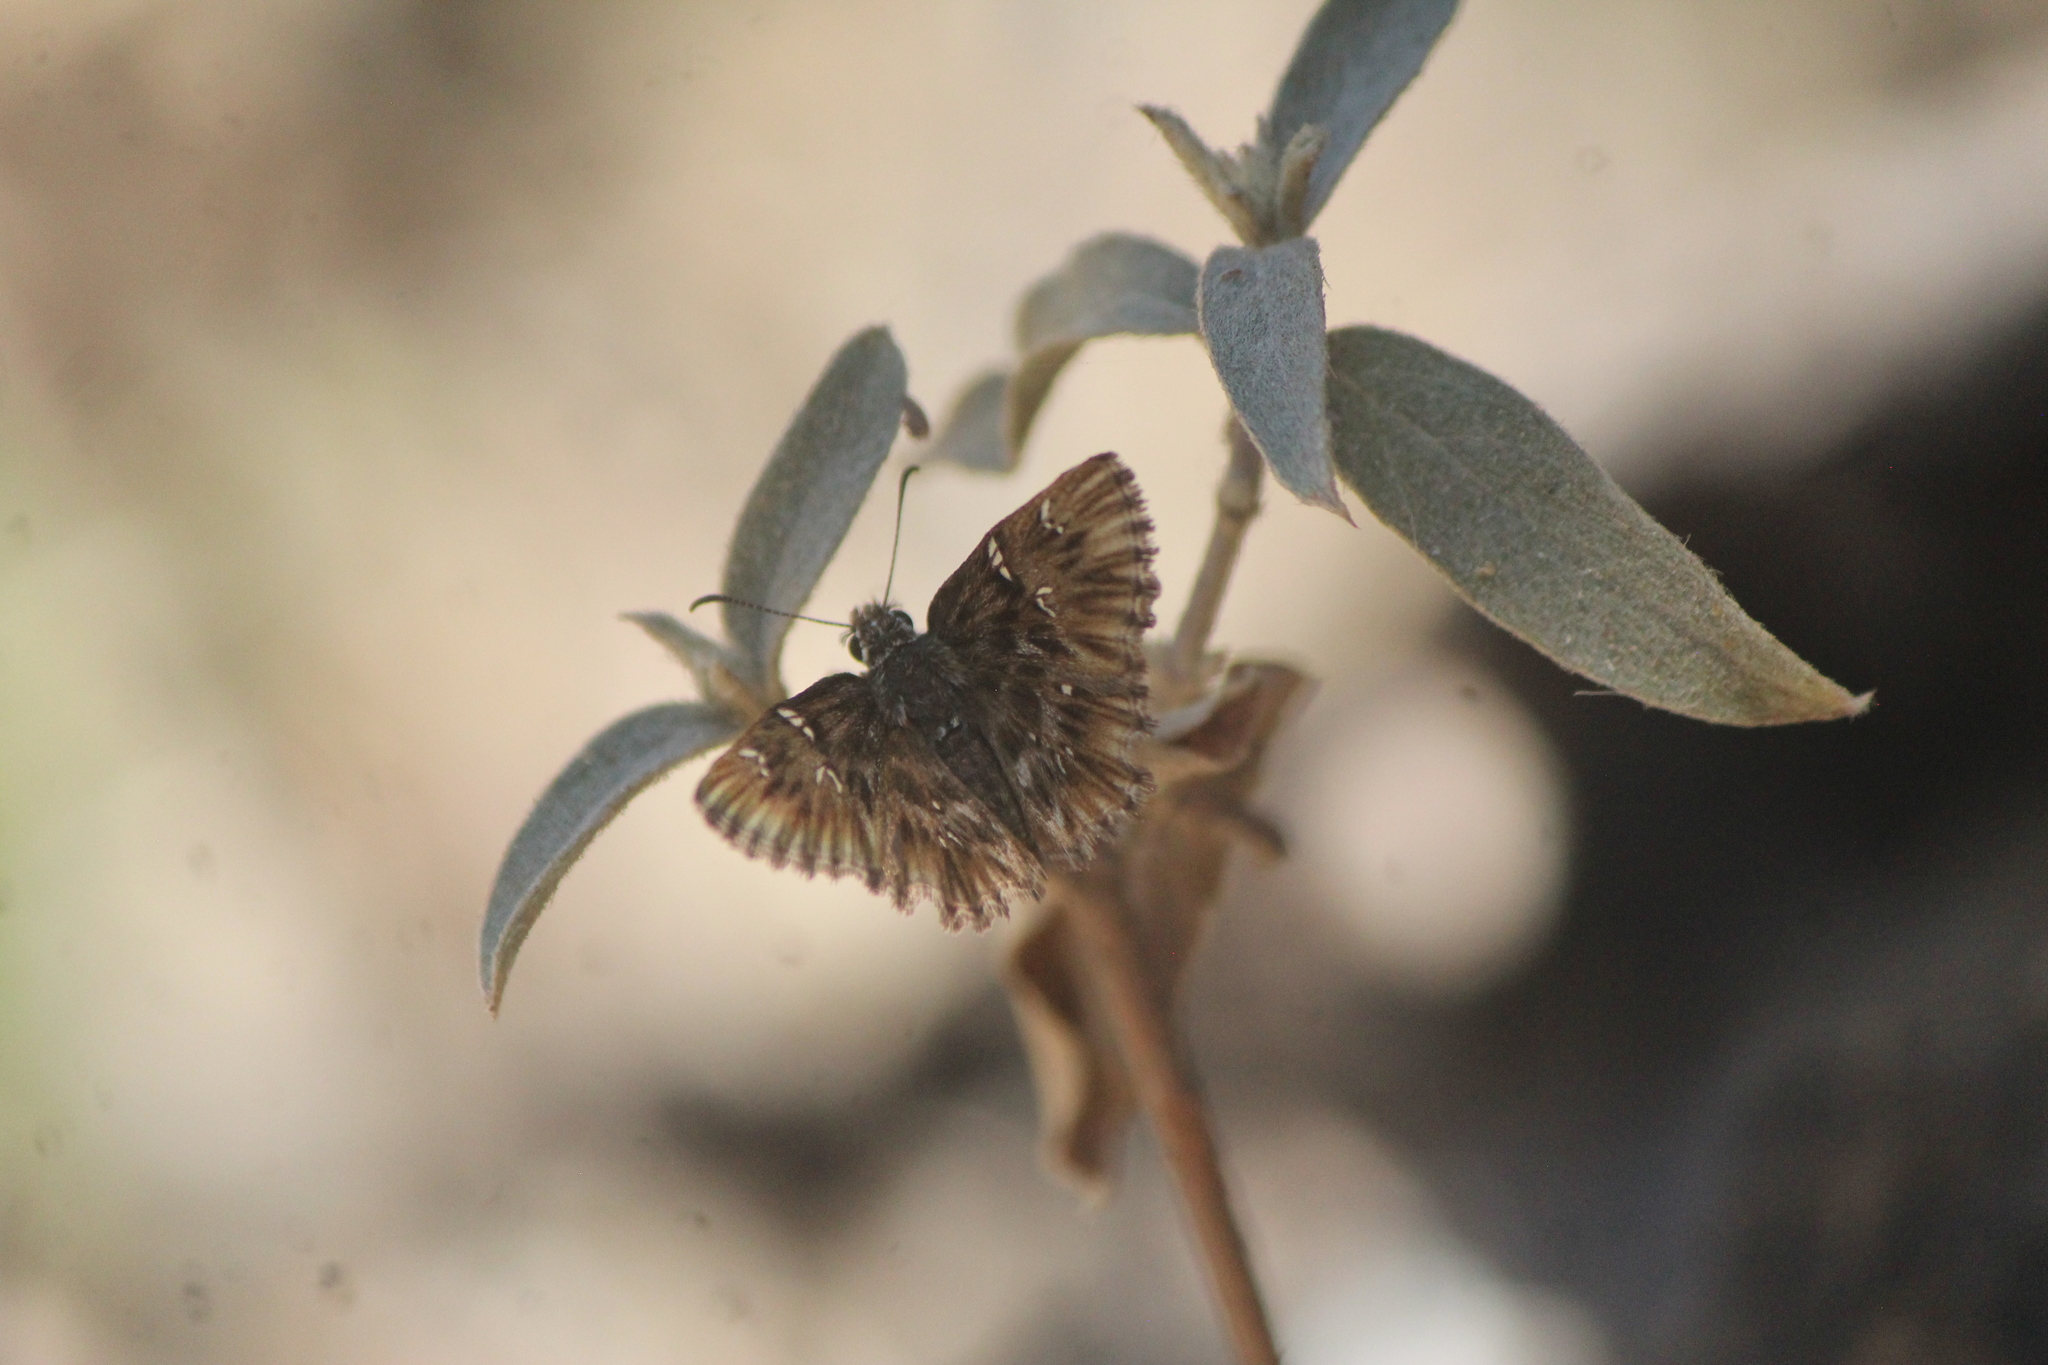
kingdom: Animalia
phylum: Arthropoda
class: Insecta
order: Lepidoptera
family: Hesperiidae
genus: Celotes
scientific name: Celotes spurcus
